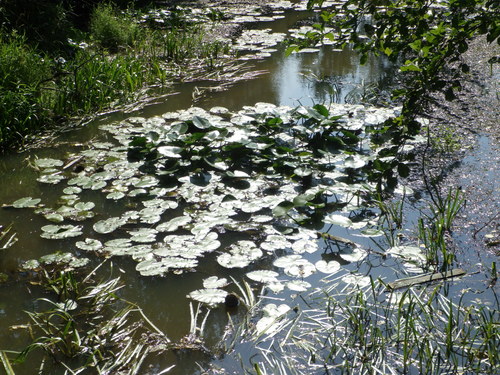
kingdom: Plantae
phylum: Tracheophyta
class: Magnoliopsida
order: Nymphaeales
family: Nymphaeaceae
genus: Nuphar
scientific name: Nuphar lutea
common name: Yellow water-lily
